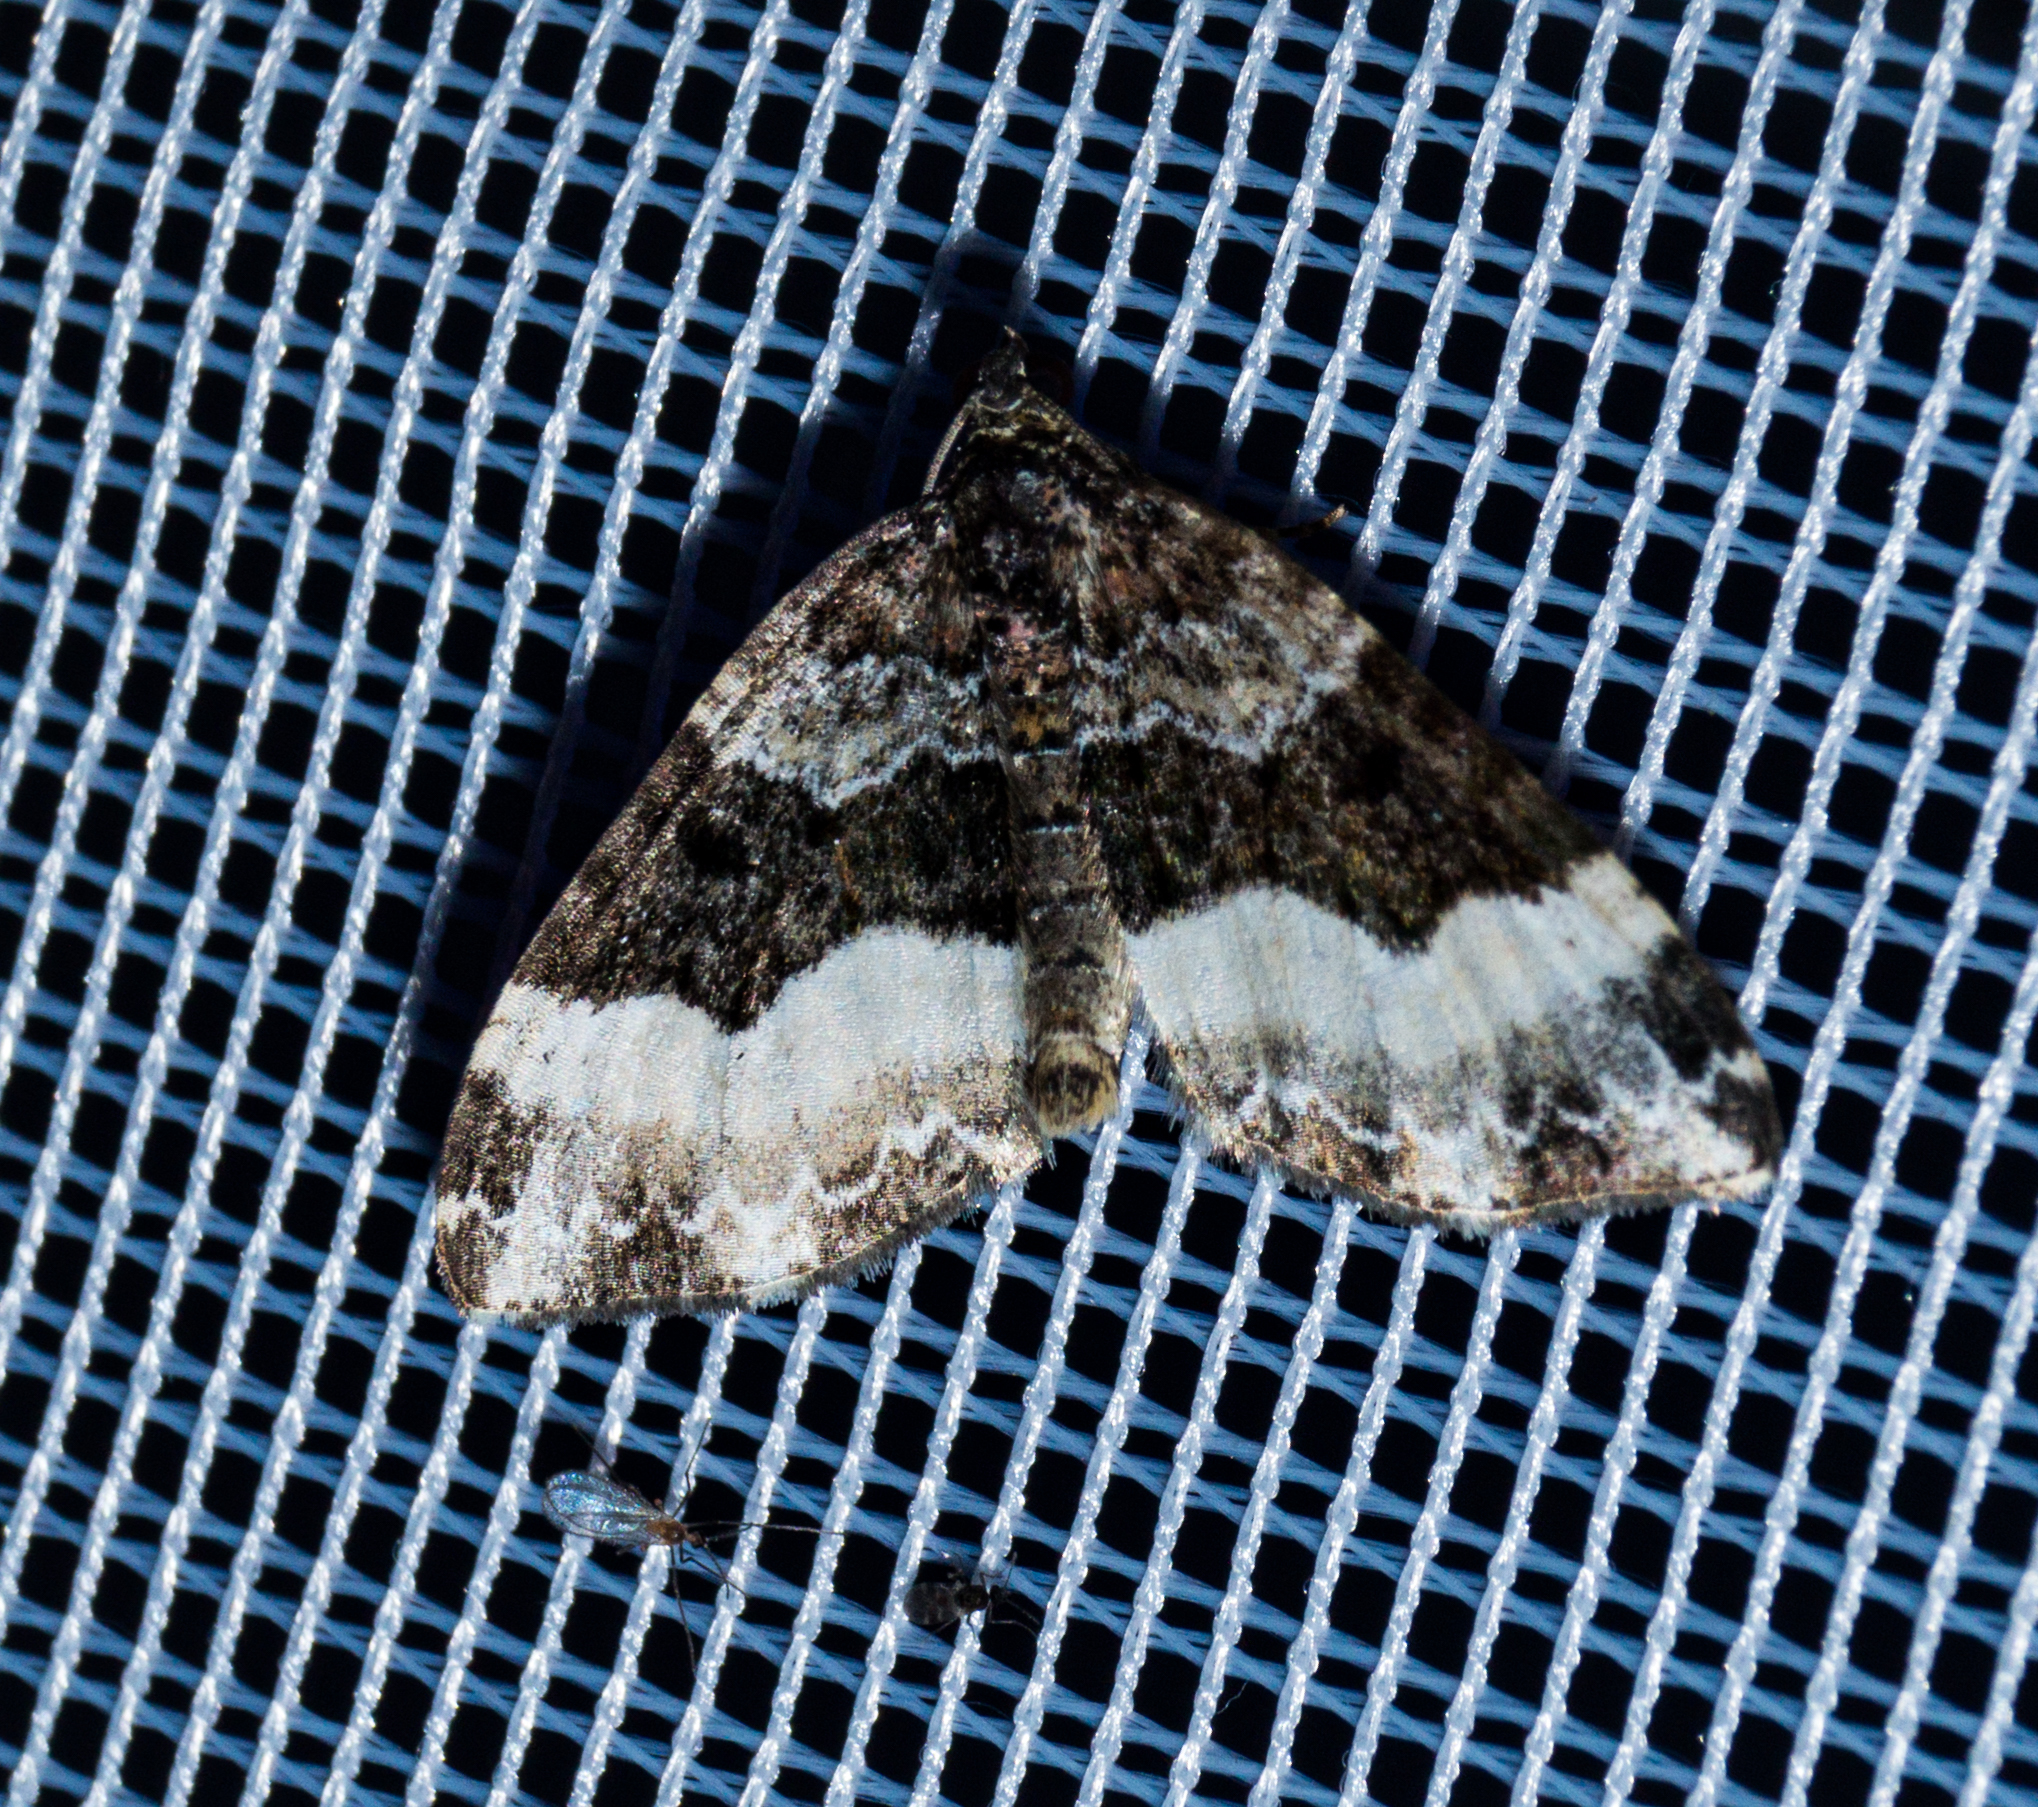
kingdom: Animalia
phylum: Arthropoda
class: Insecta
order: Lepidoptera
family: Geometridae
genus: Euphyia
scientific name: Euphyia unangulata
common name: Sharp-angled carpet
